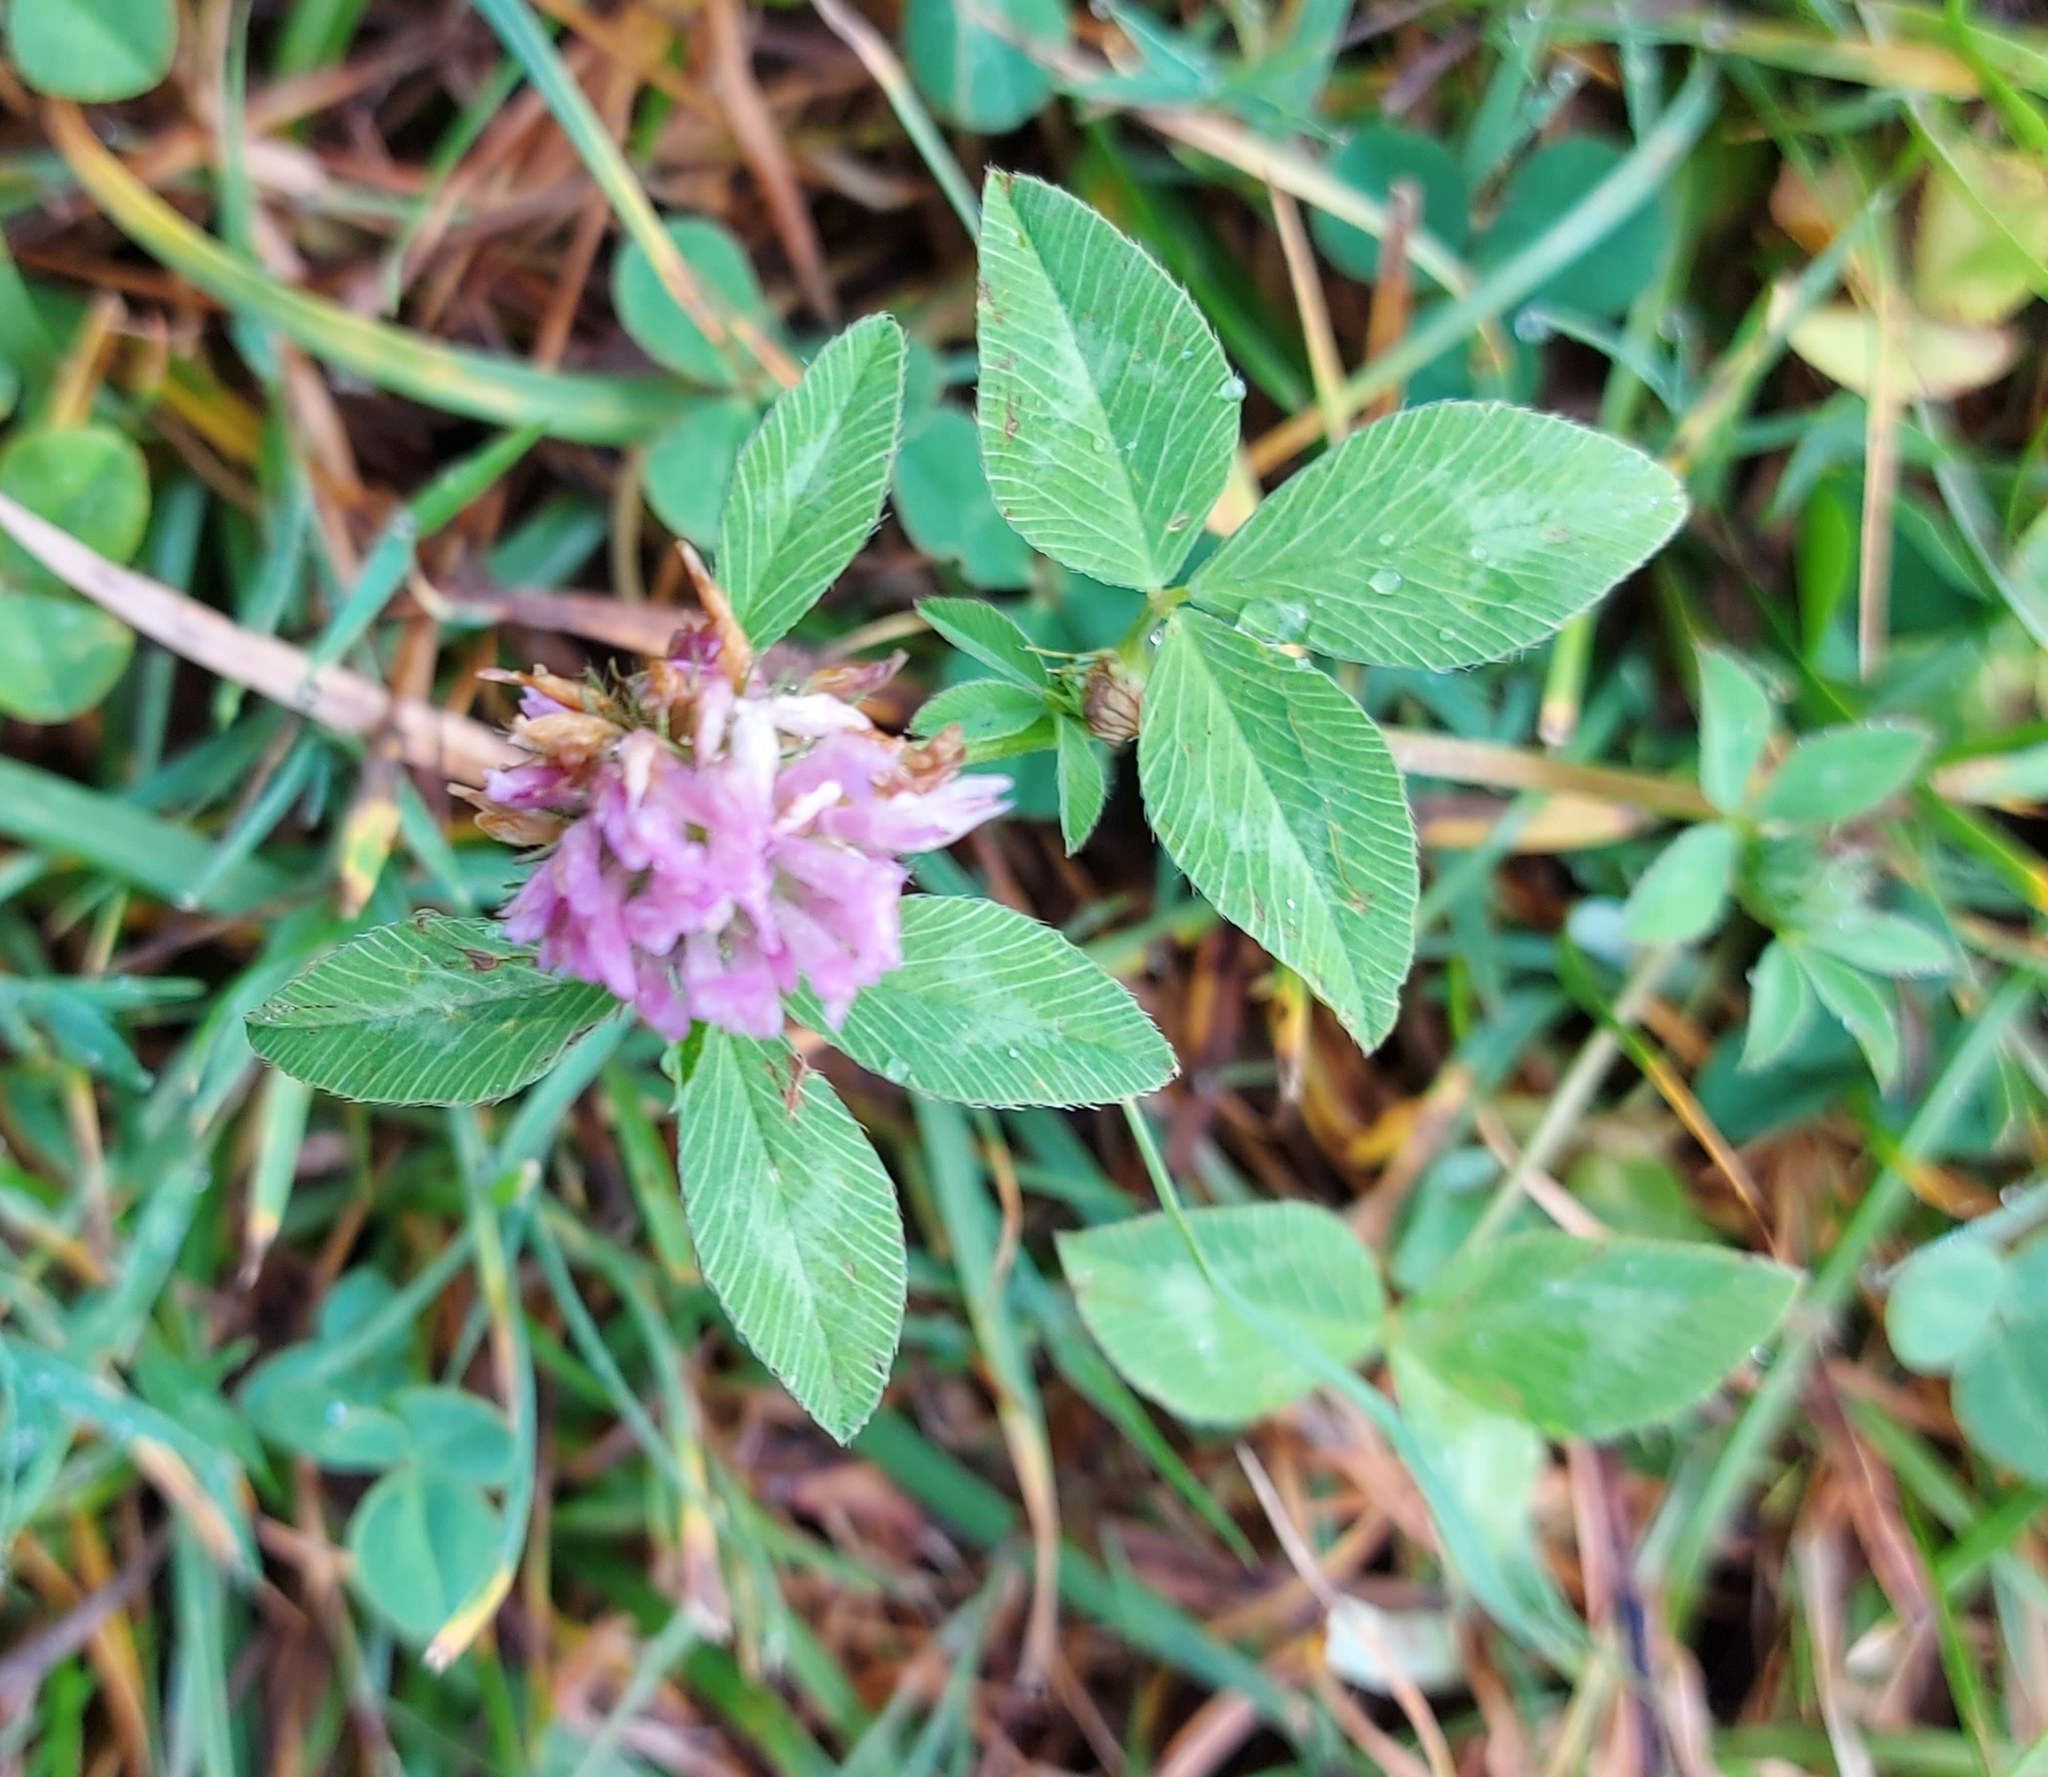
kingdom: Plantae
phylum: Tracheophyta
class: Magnoliopsida
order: Fabales
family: Fabaceae
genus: Trifolium
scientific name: Trifolium pratense
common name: Red clover
